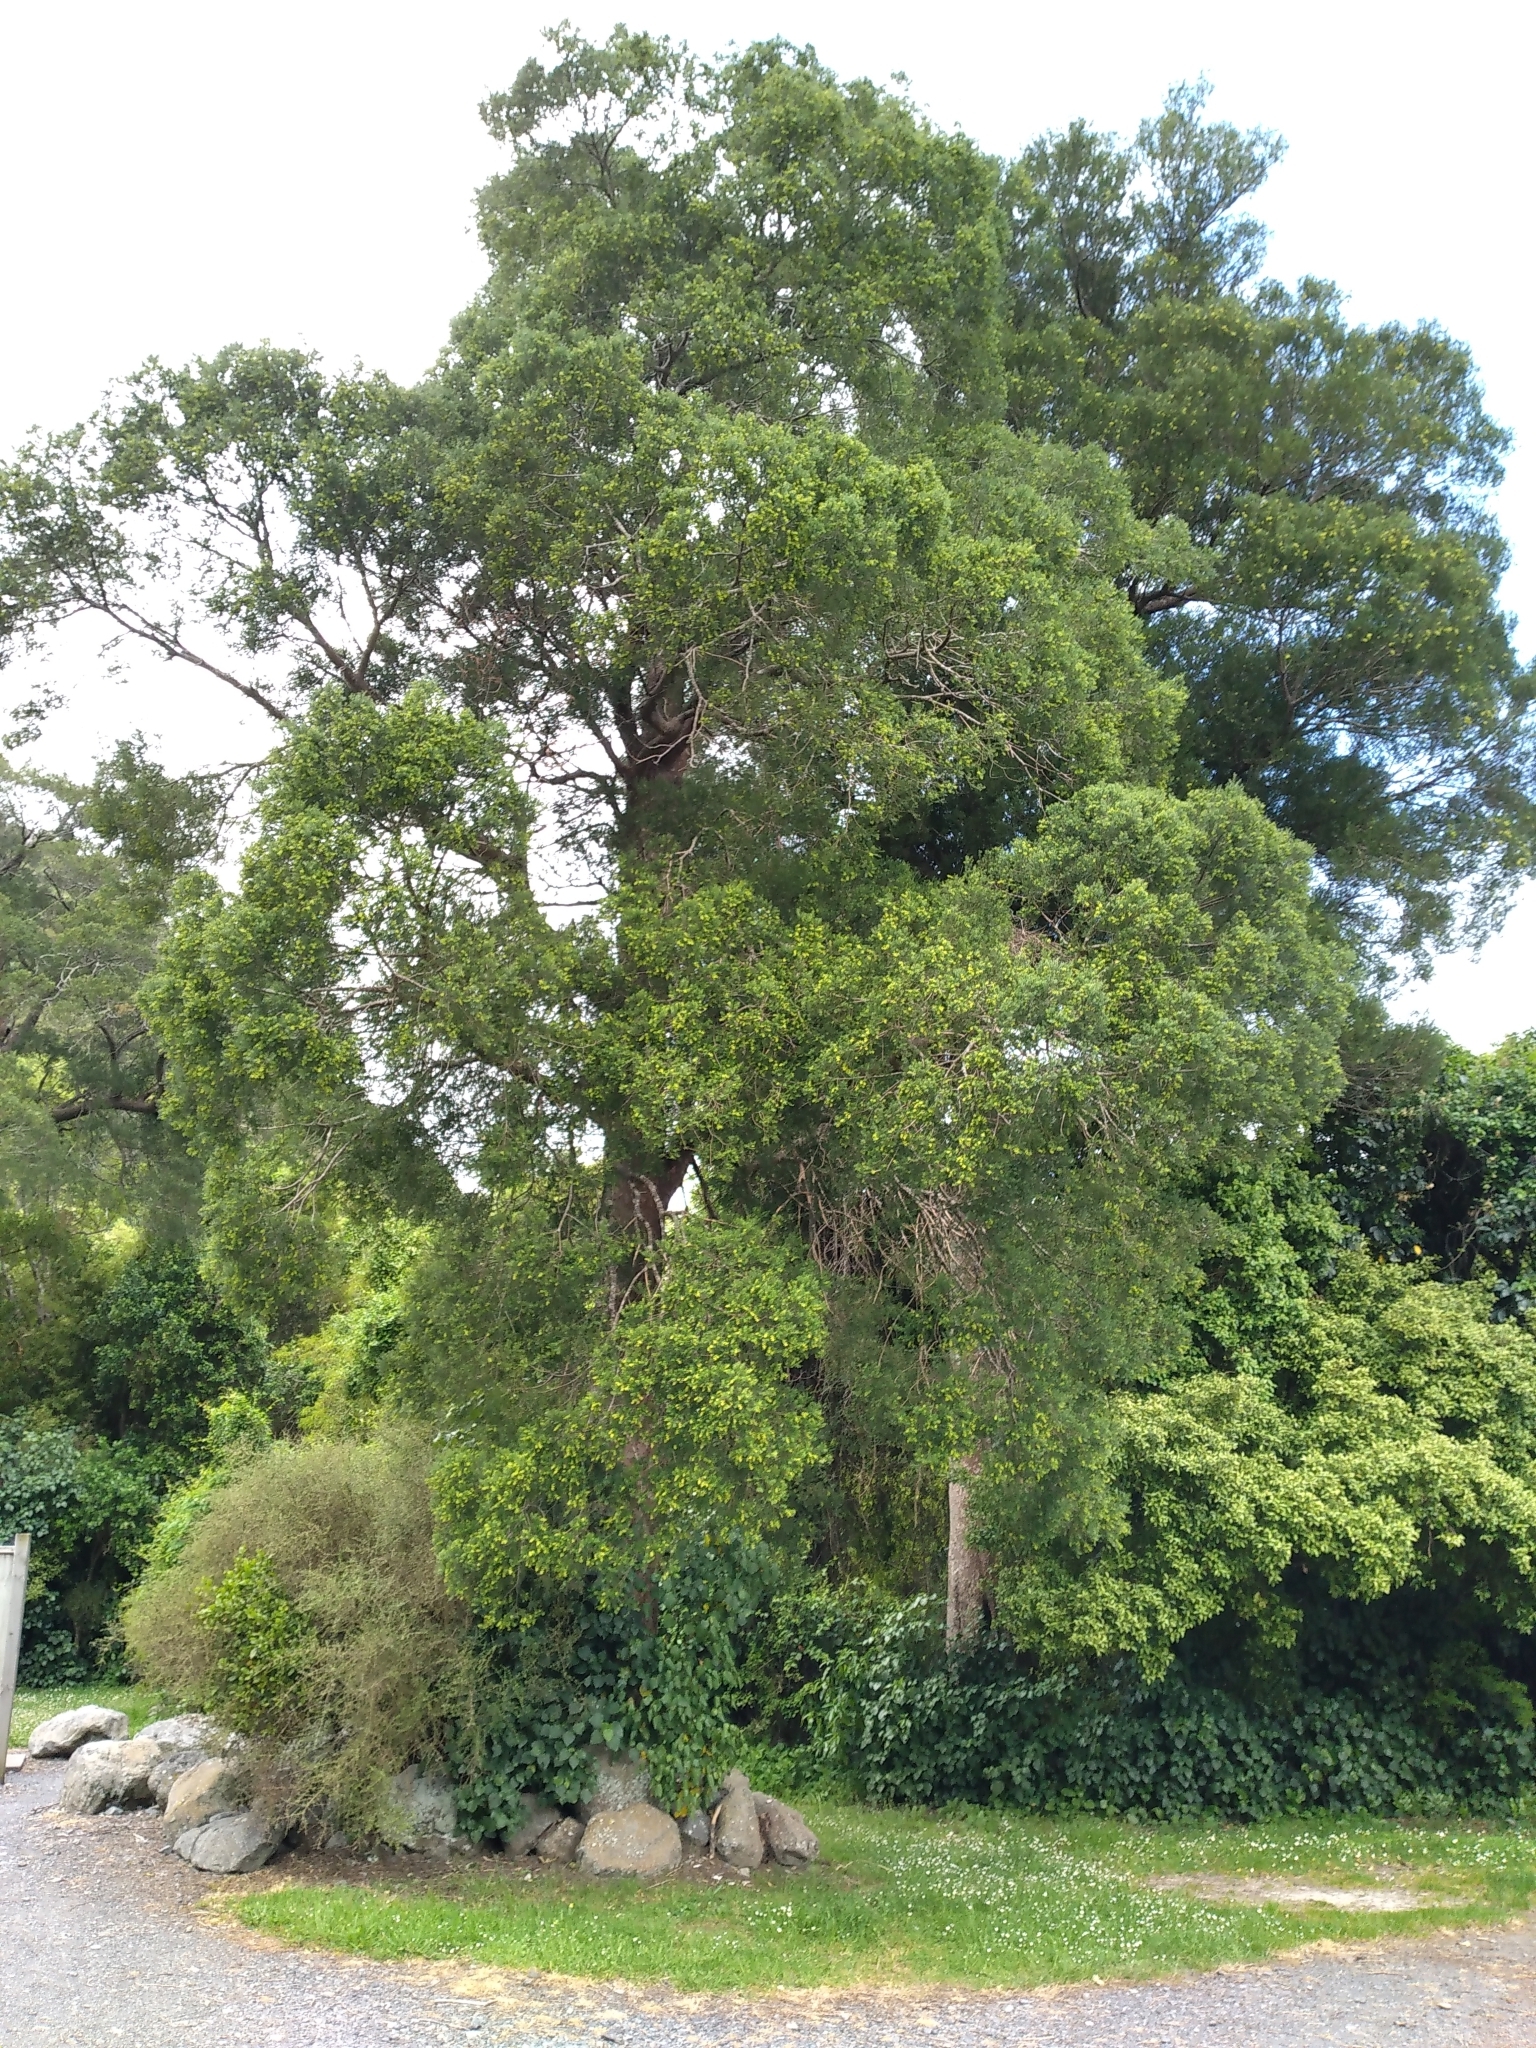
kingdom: Plantae
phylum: Tracheophyta
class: Pinopsida
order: Pinales
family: Podocarpaceae
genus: Prumnopitys
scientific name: Prumnopitys taxifolia
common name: Matai
